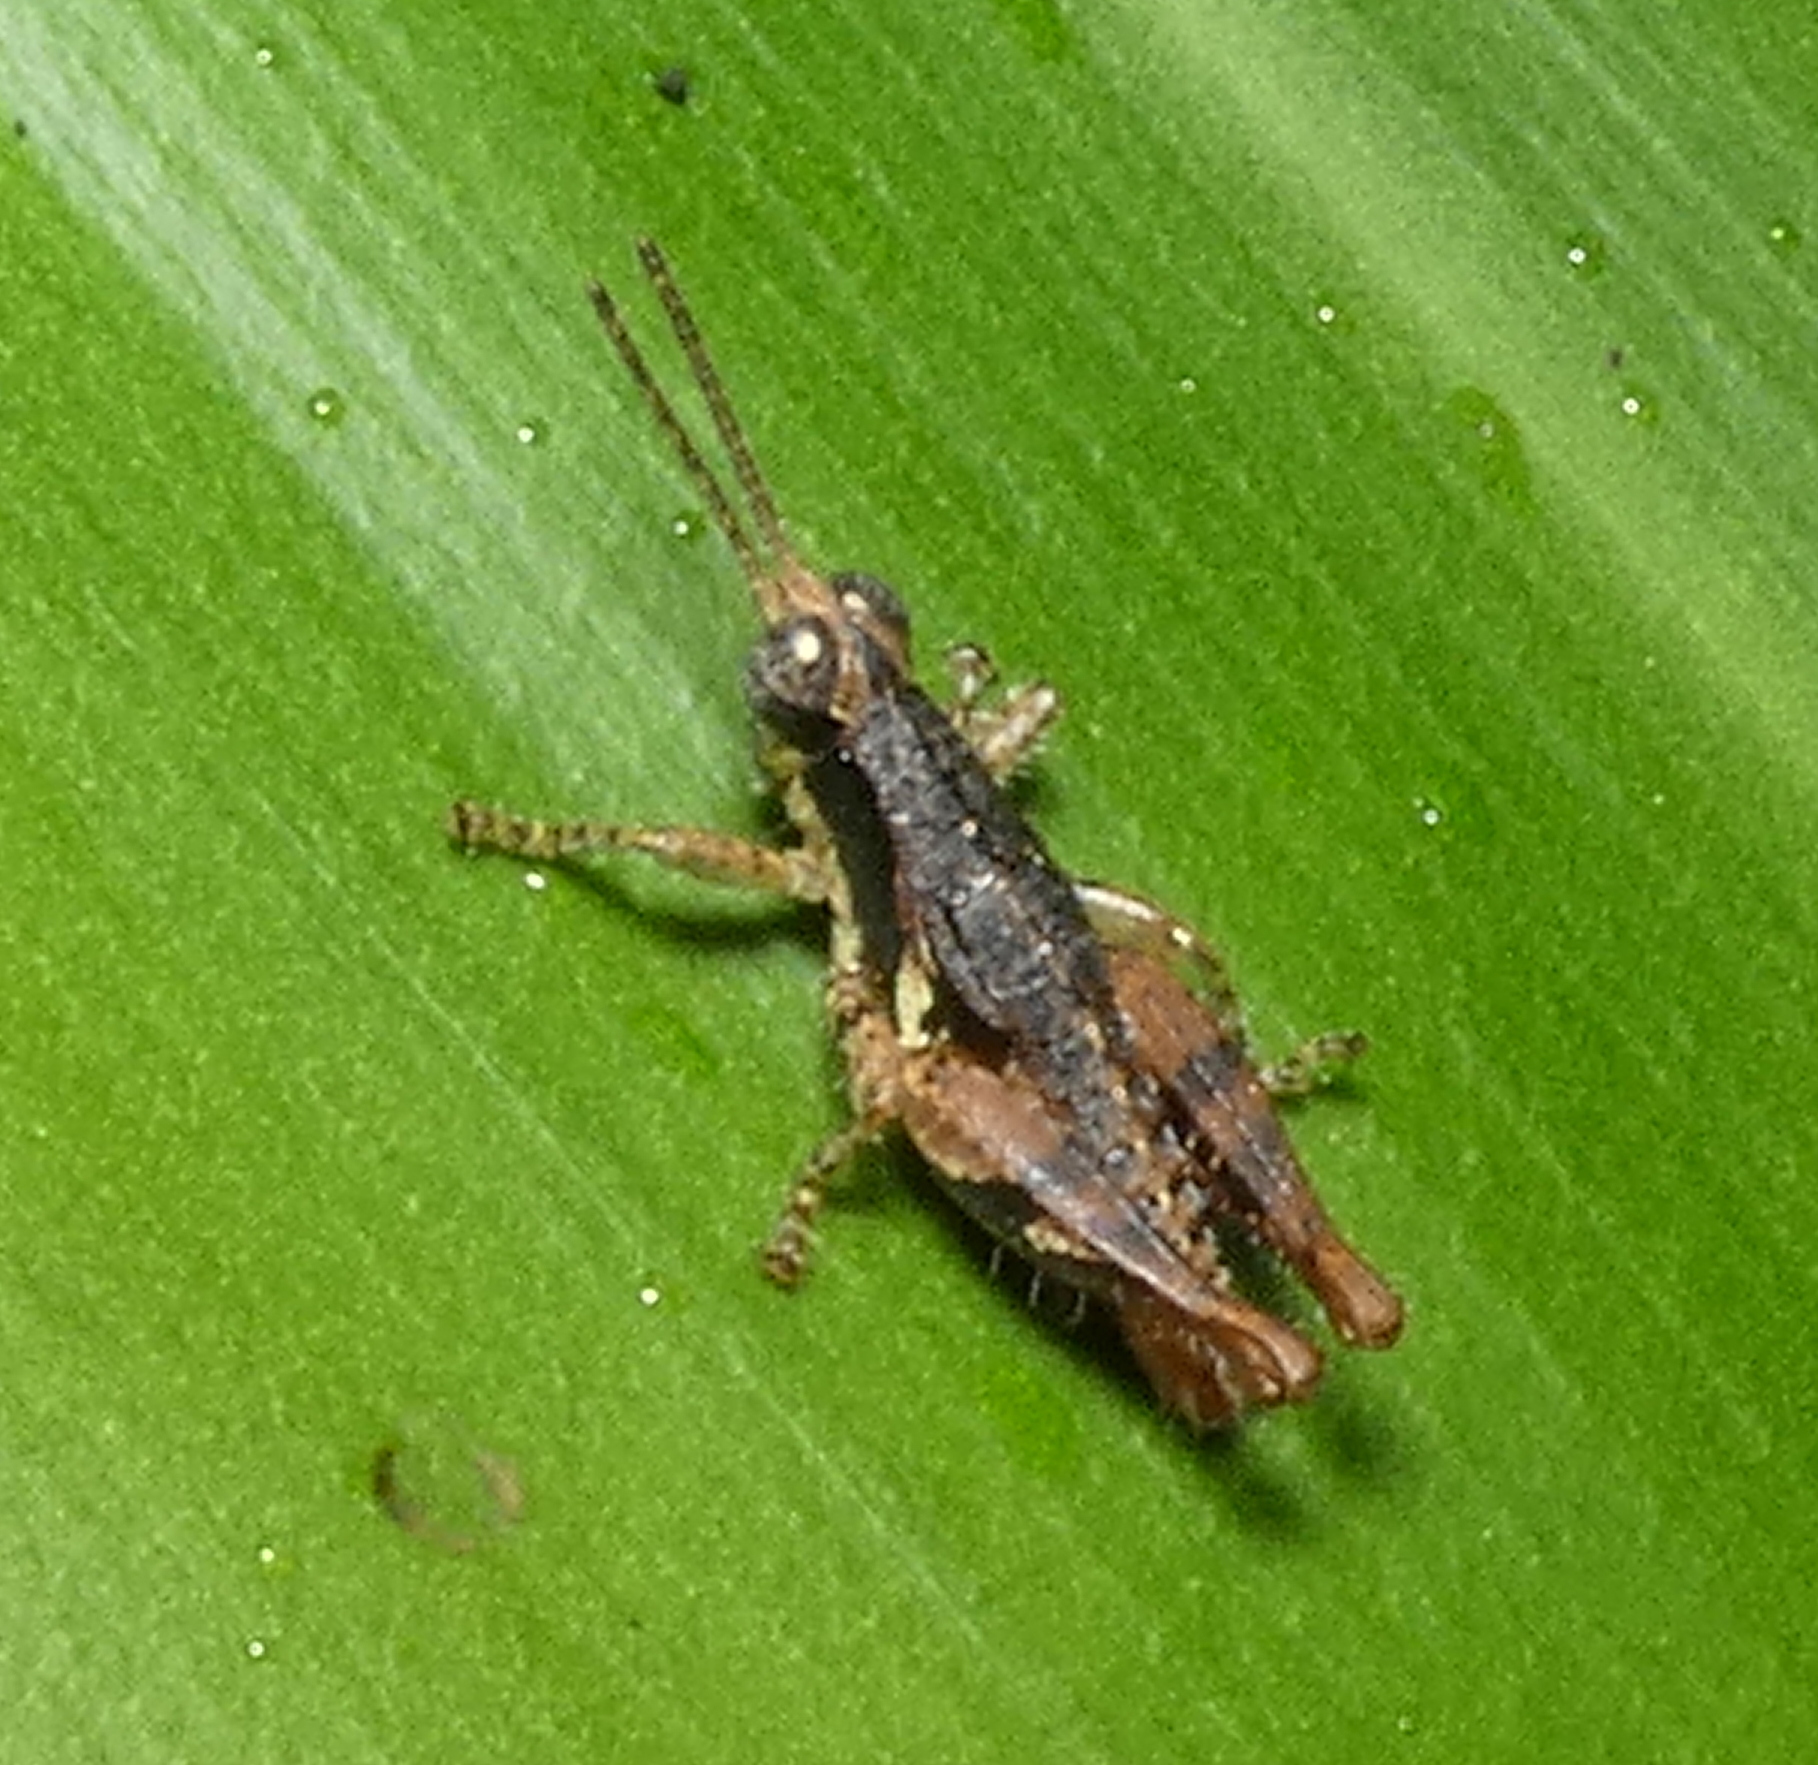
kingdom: Animalia
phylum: Arthropoda
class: Insecta
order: Orthoptera
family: Acrididae
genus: Eujivarus
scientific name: Eujivarus meridionalis
